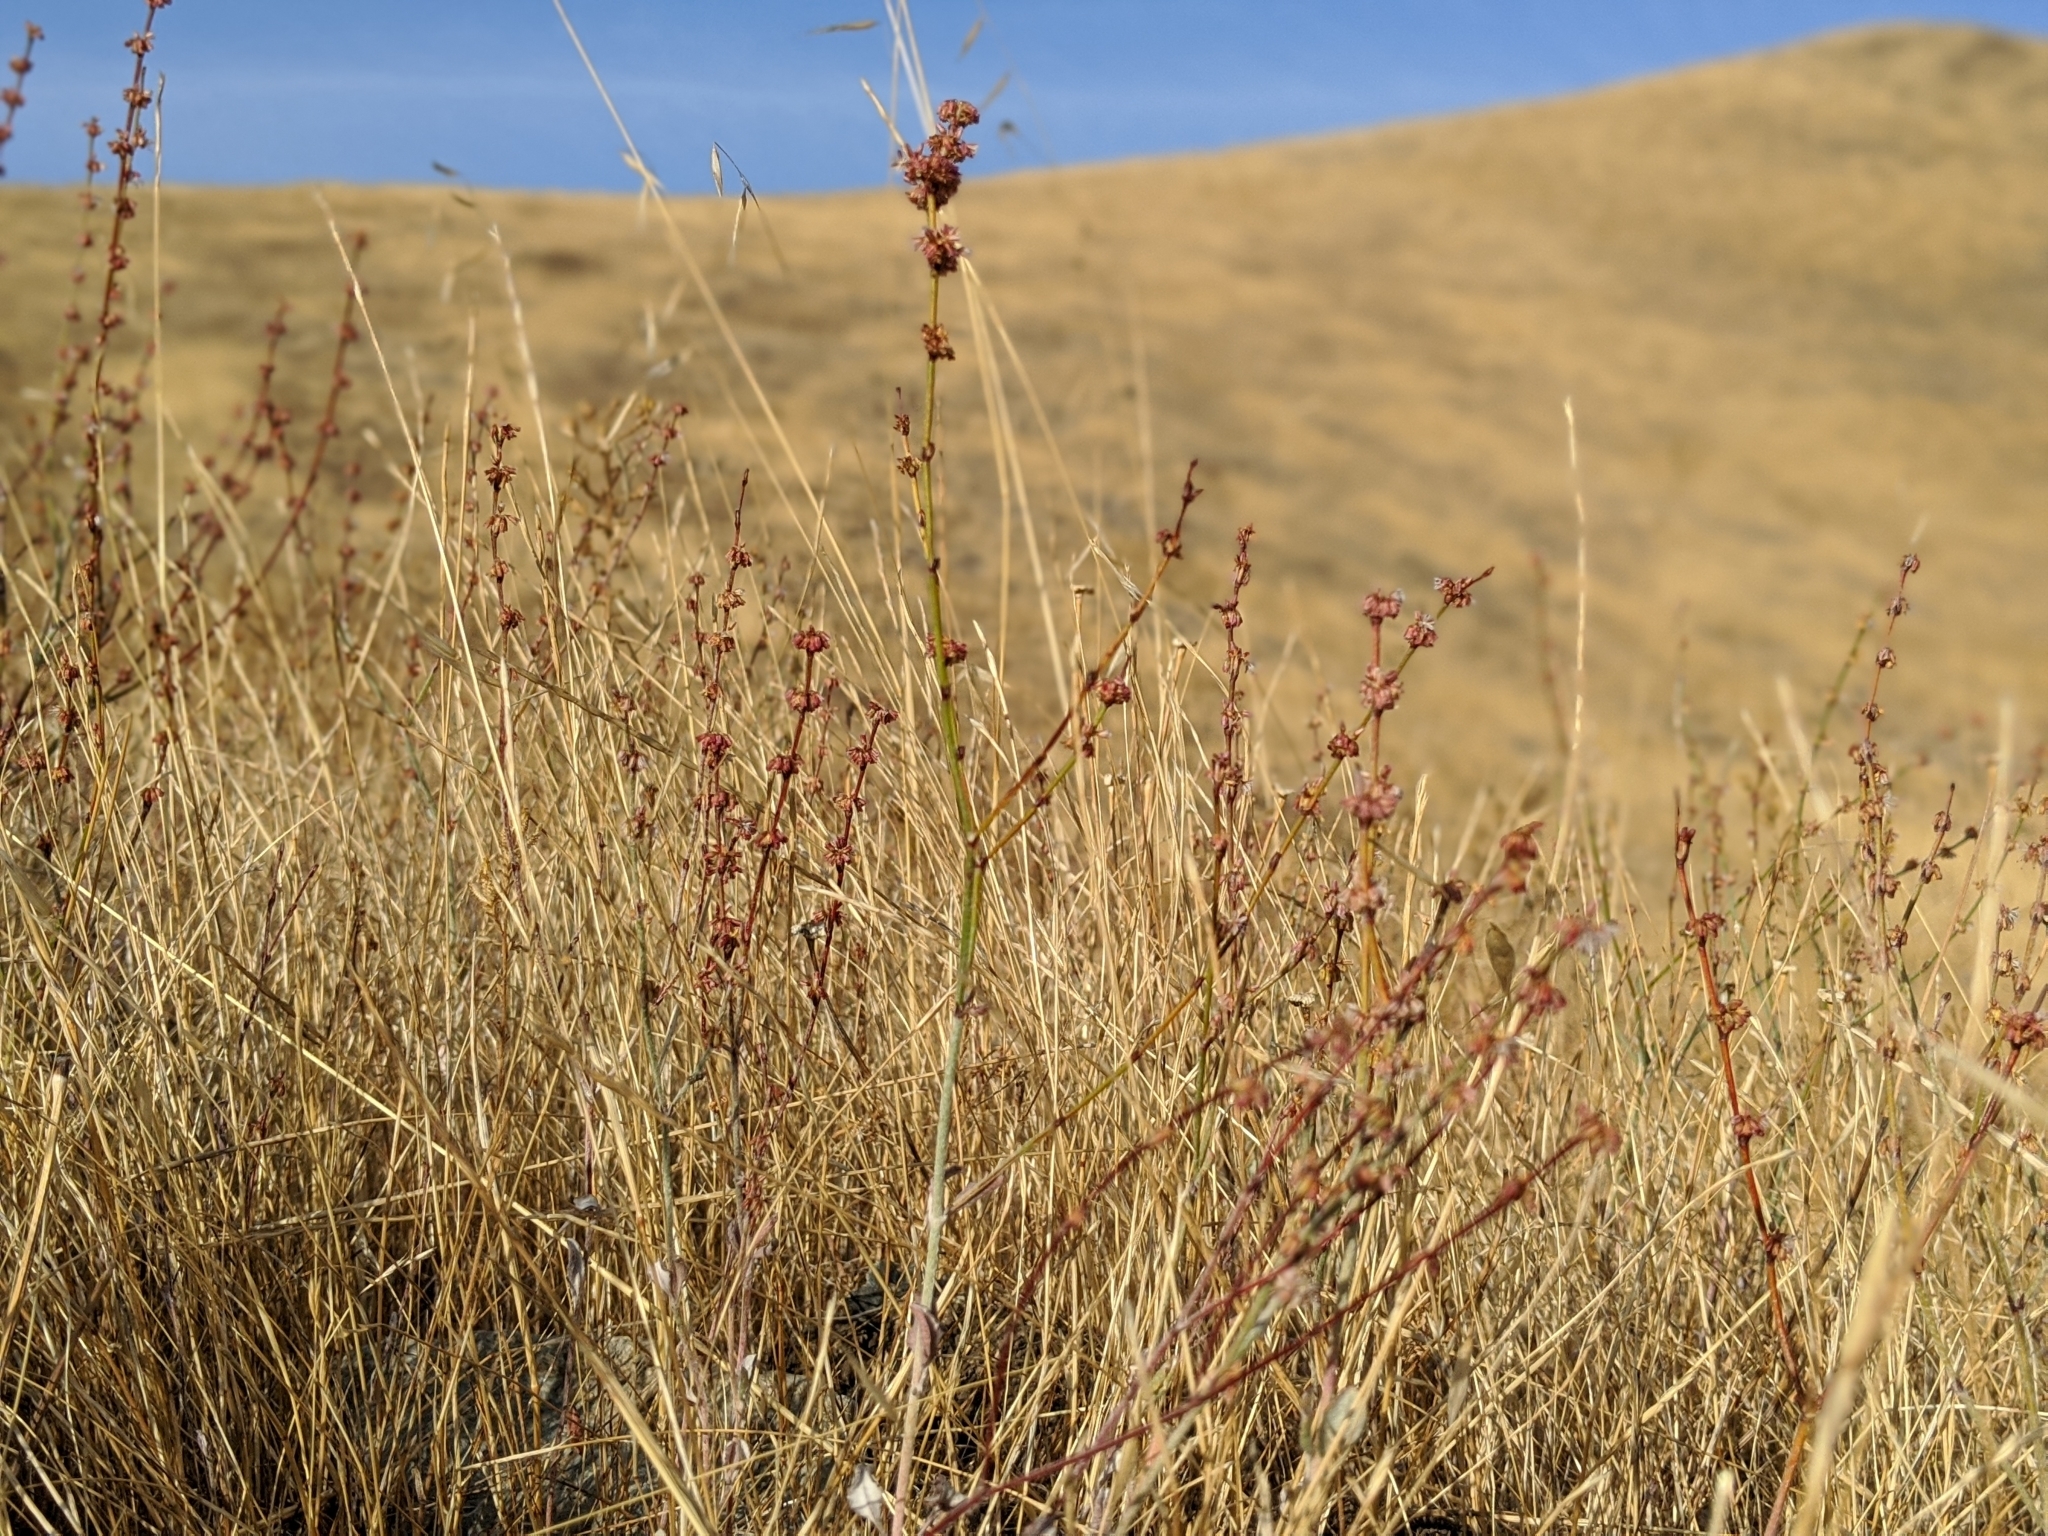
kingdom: Plantae
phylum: Tracheophyta
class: Magnoliopsida
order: Caryophyllales
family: Polygonaceae
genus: Eriogonum
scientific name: Eriogonum gracile
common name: Slender woolly buckwheat
